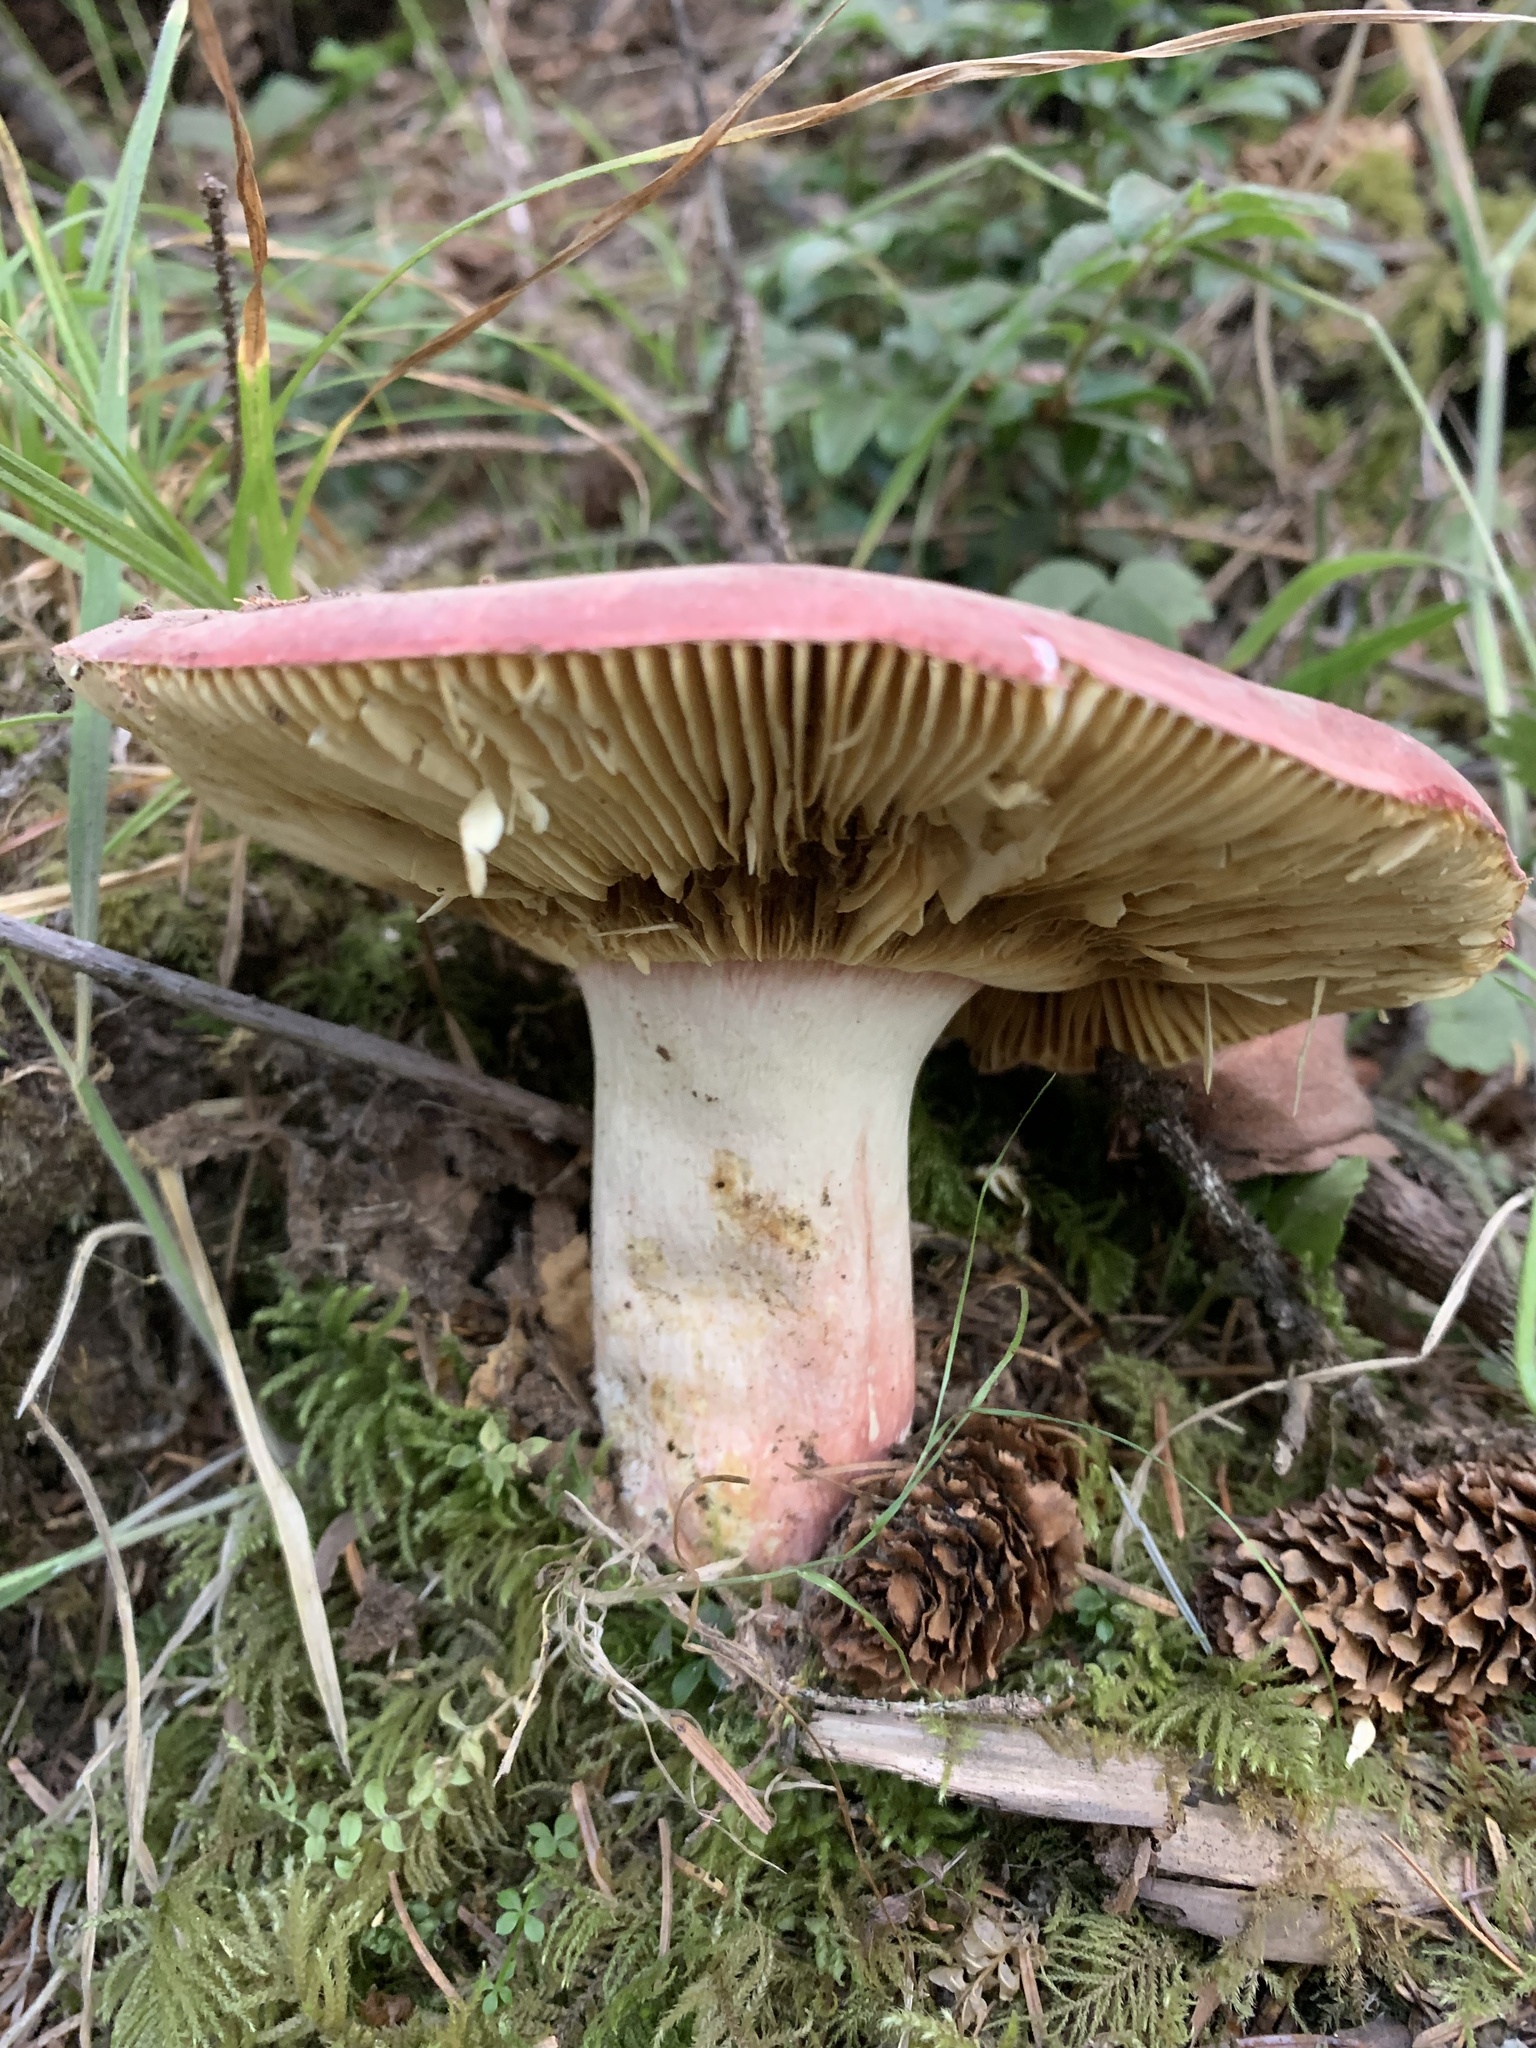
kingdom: Fungi
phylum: Basidiomycota
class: Agaricomycetes
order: Russulales
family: Russulaceae
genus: Russula
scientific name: Russula xerampelina
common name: Crab brittlegill
